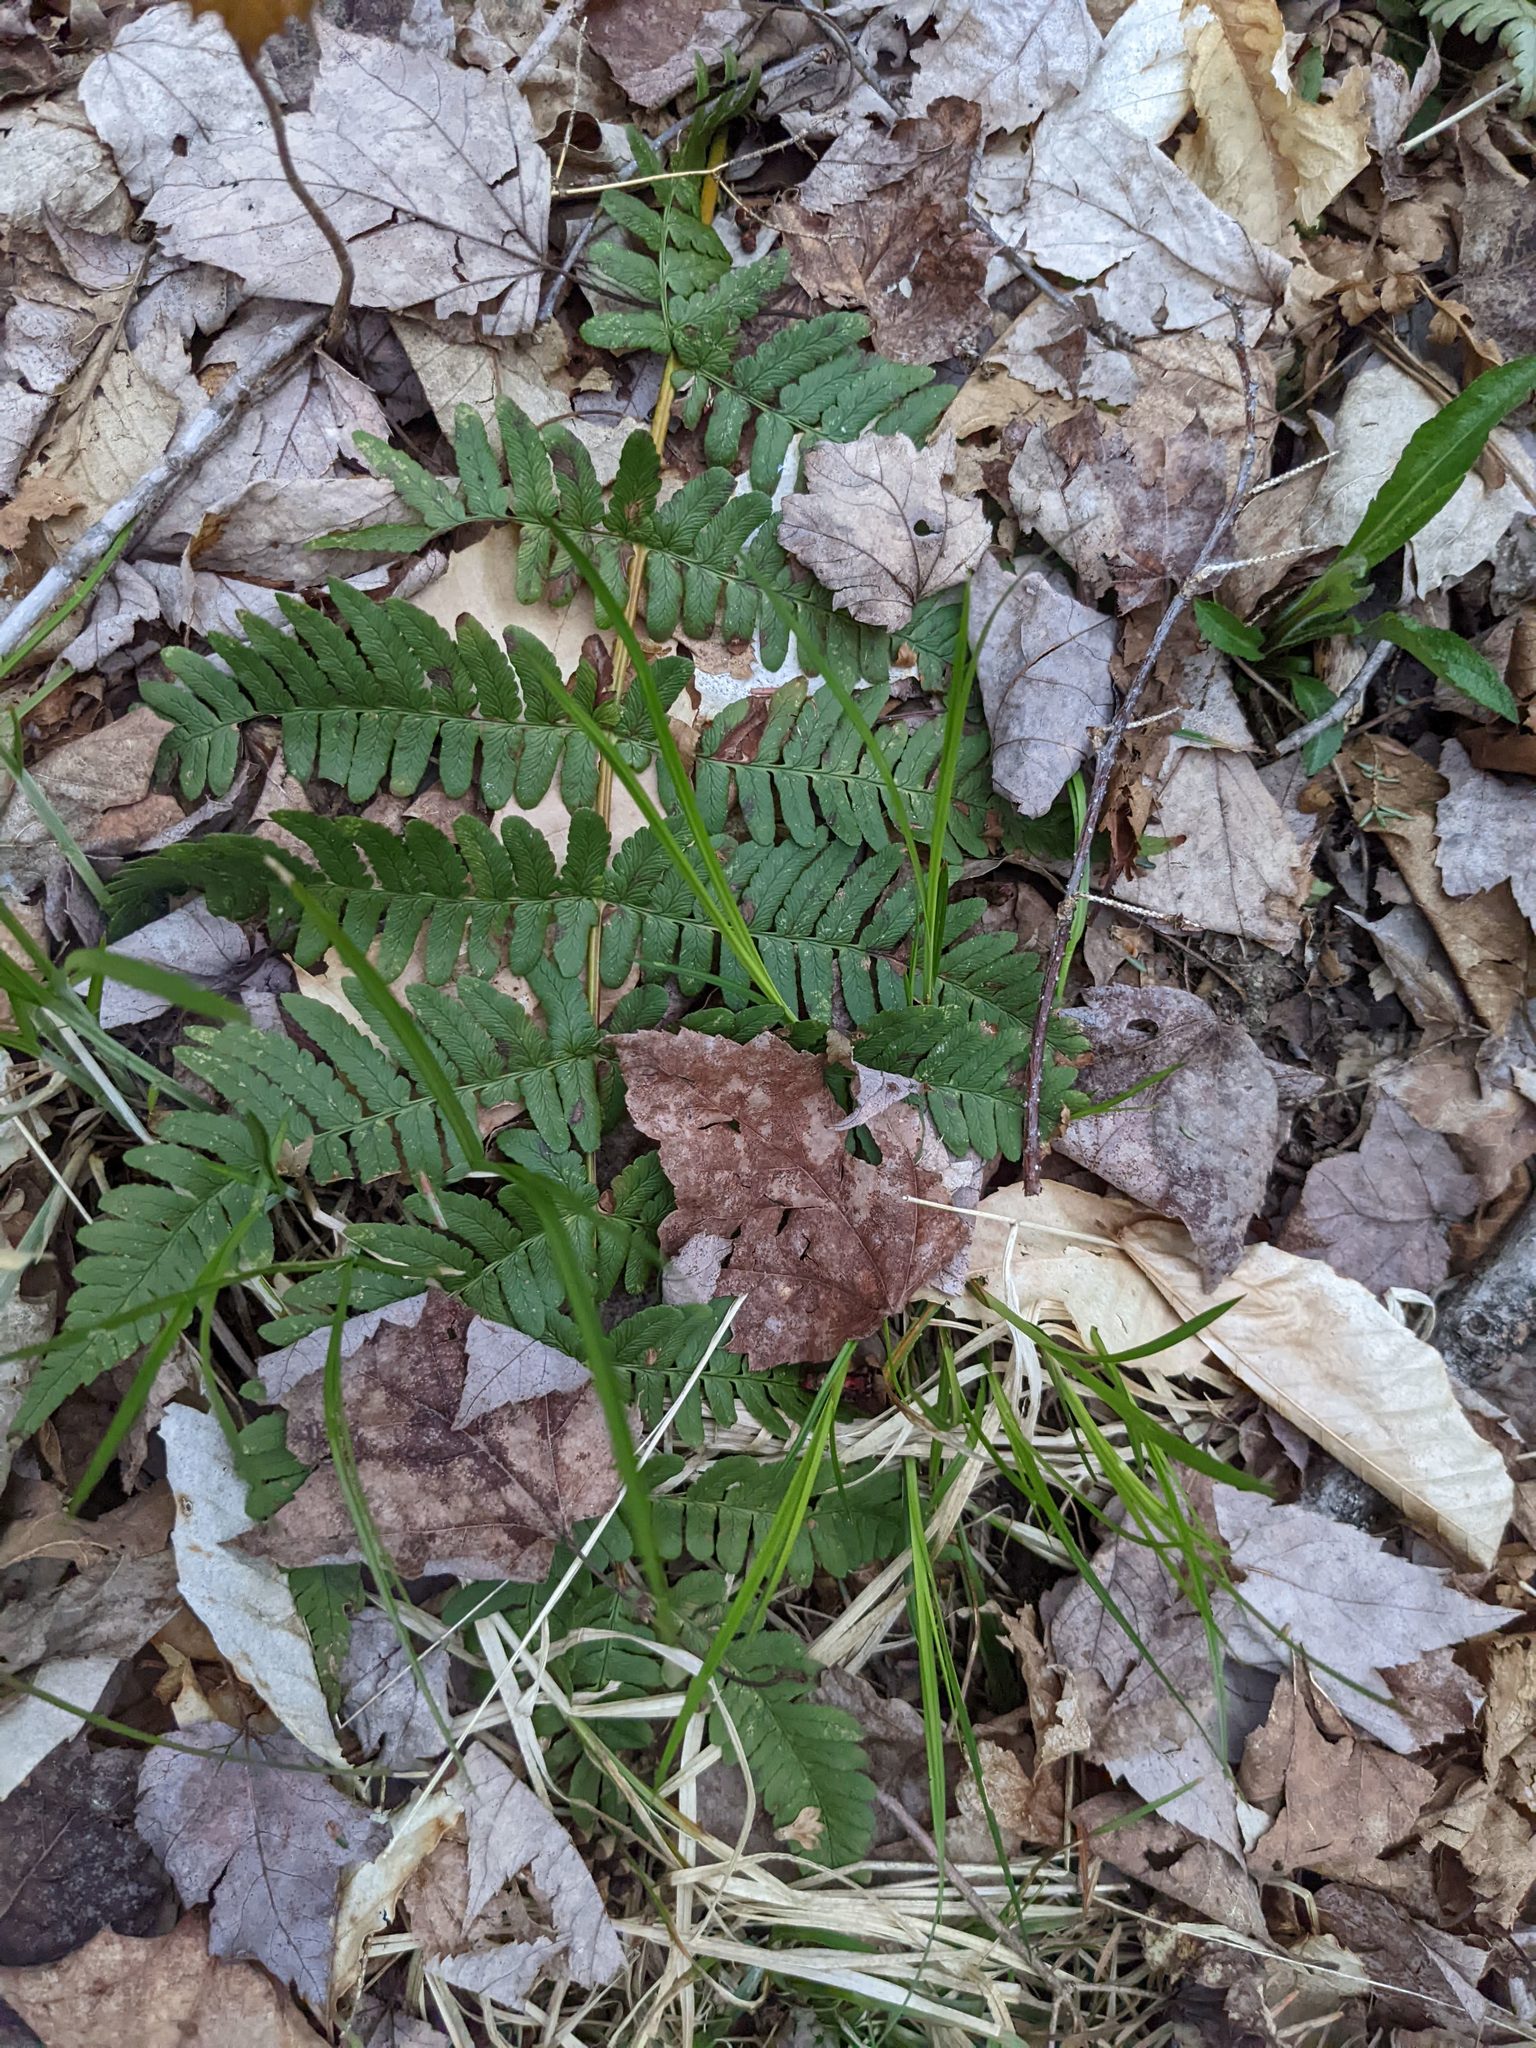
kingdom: Plantae
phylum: Tracheophyta
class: Polypodiopsida
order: Polypodiales
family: Dryopteridaceae
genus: Dryopteris
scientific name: Dryopteris marginalis
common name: Marginal wood fern
